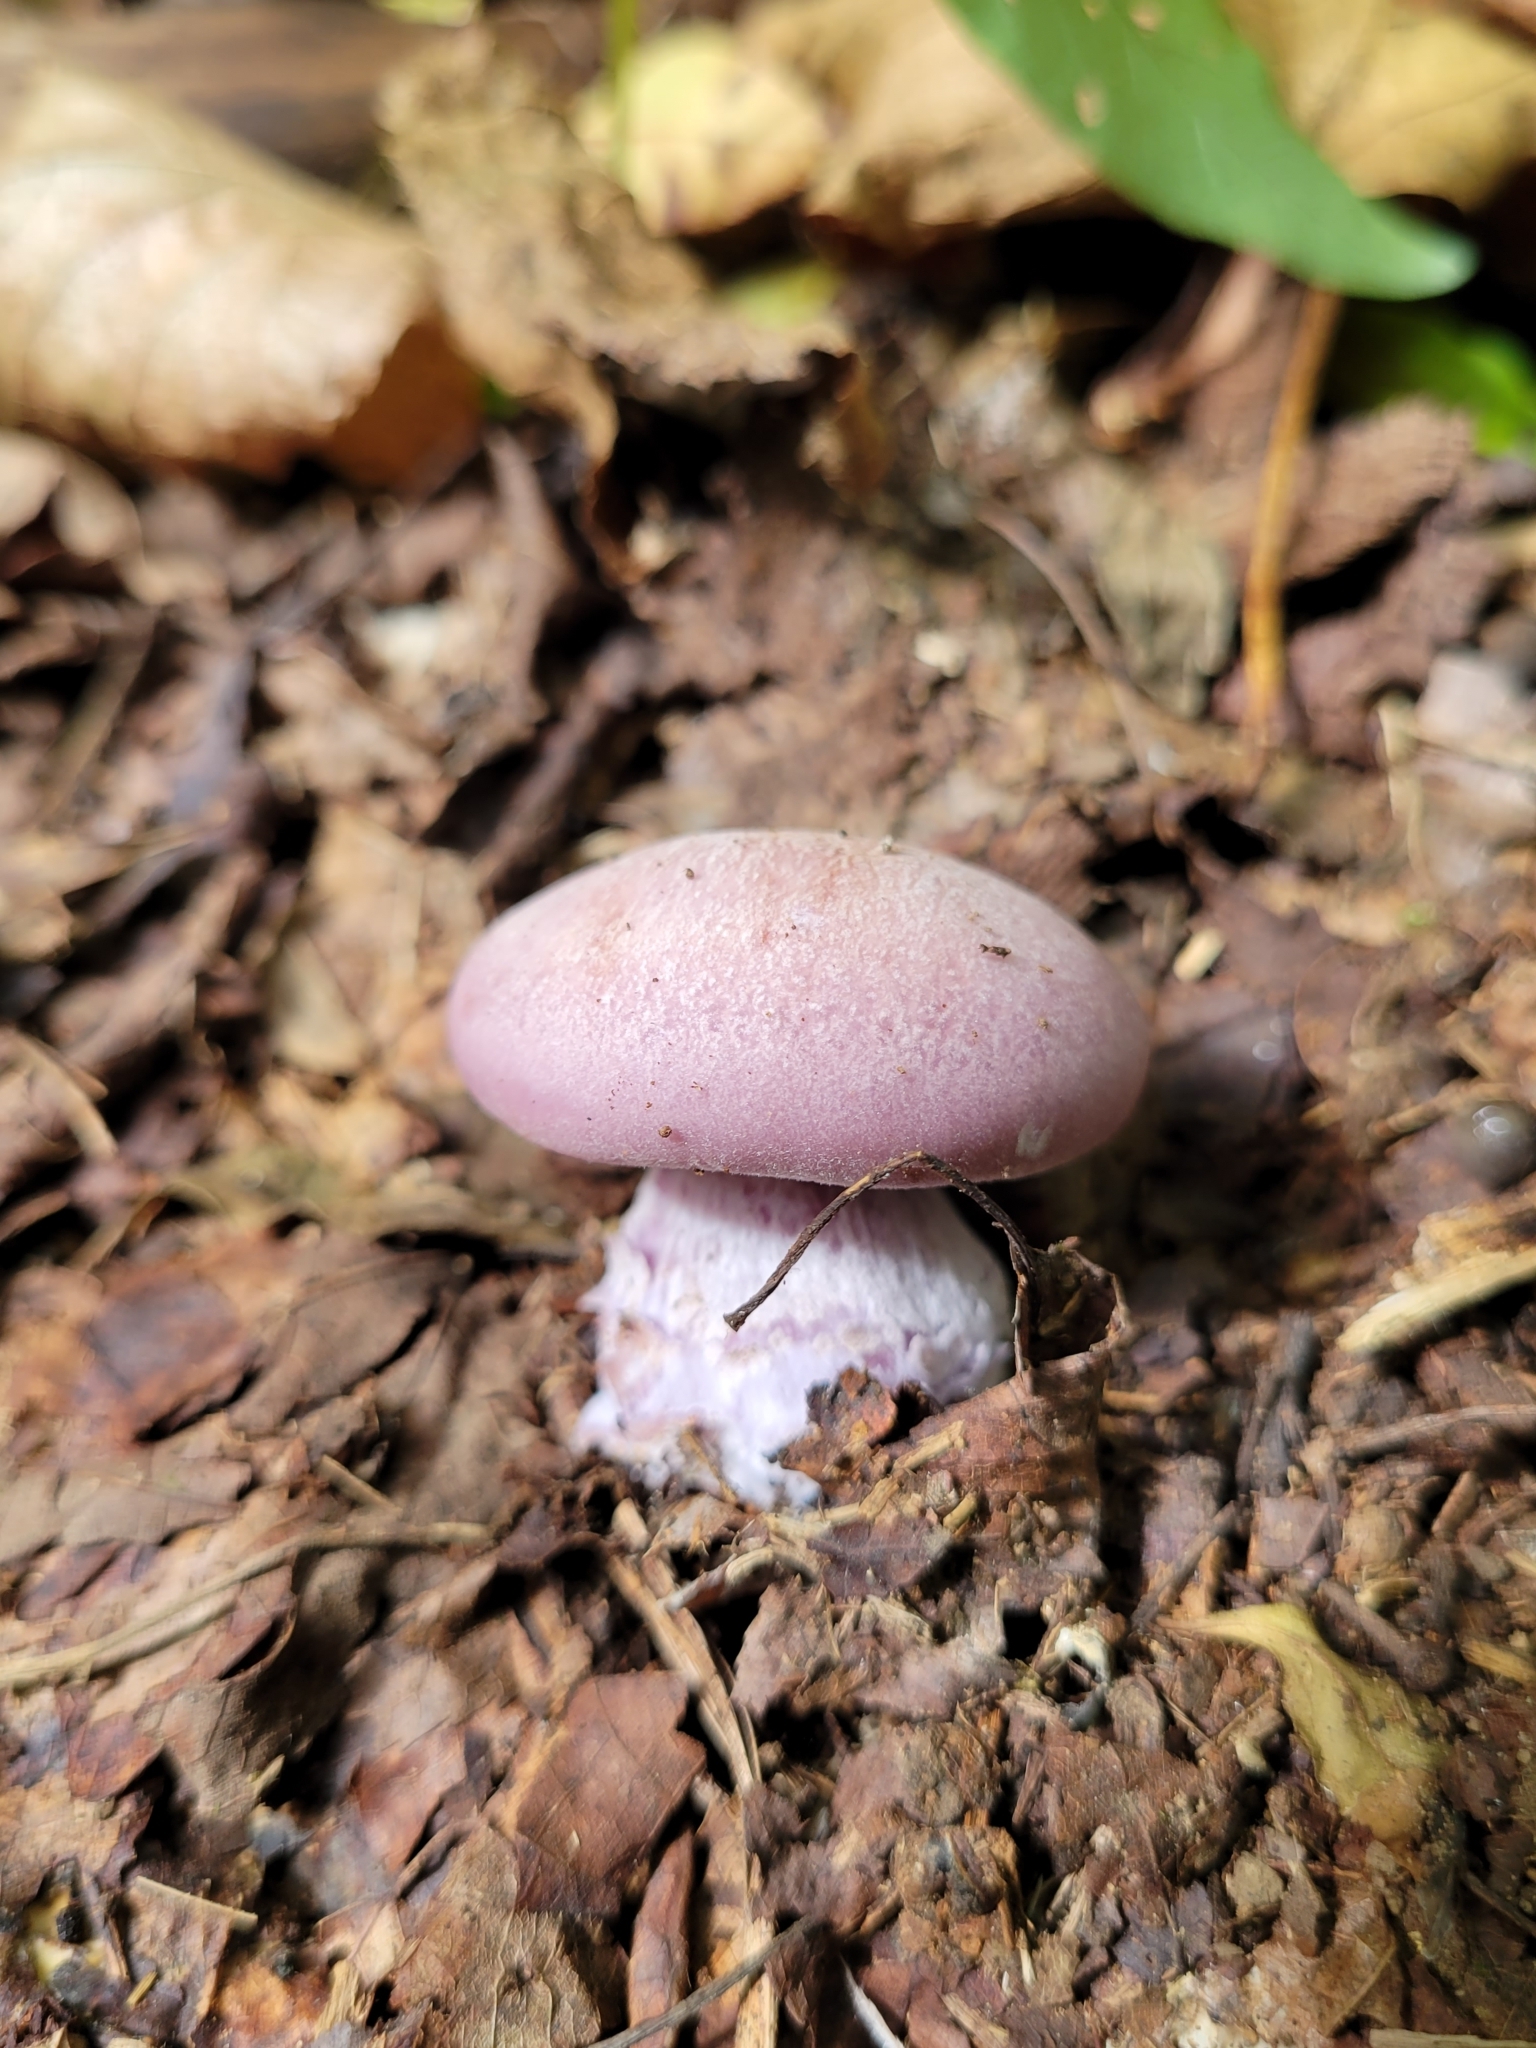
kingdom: Fungi
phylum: Basidiomycota
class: Agaricomycetes
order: Agaricales
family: Tricholomataceae
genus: Collybia
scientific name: Collybia
